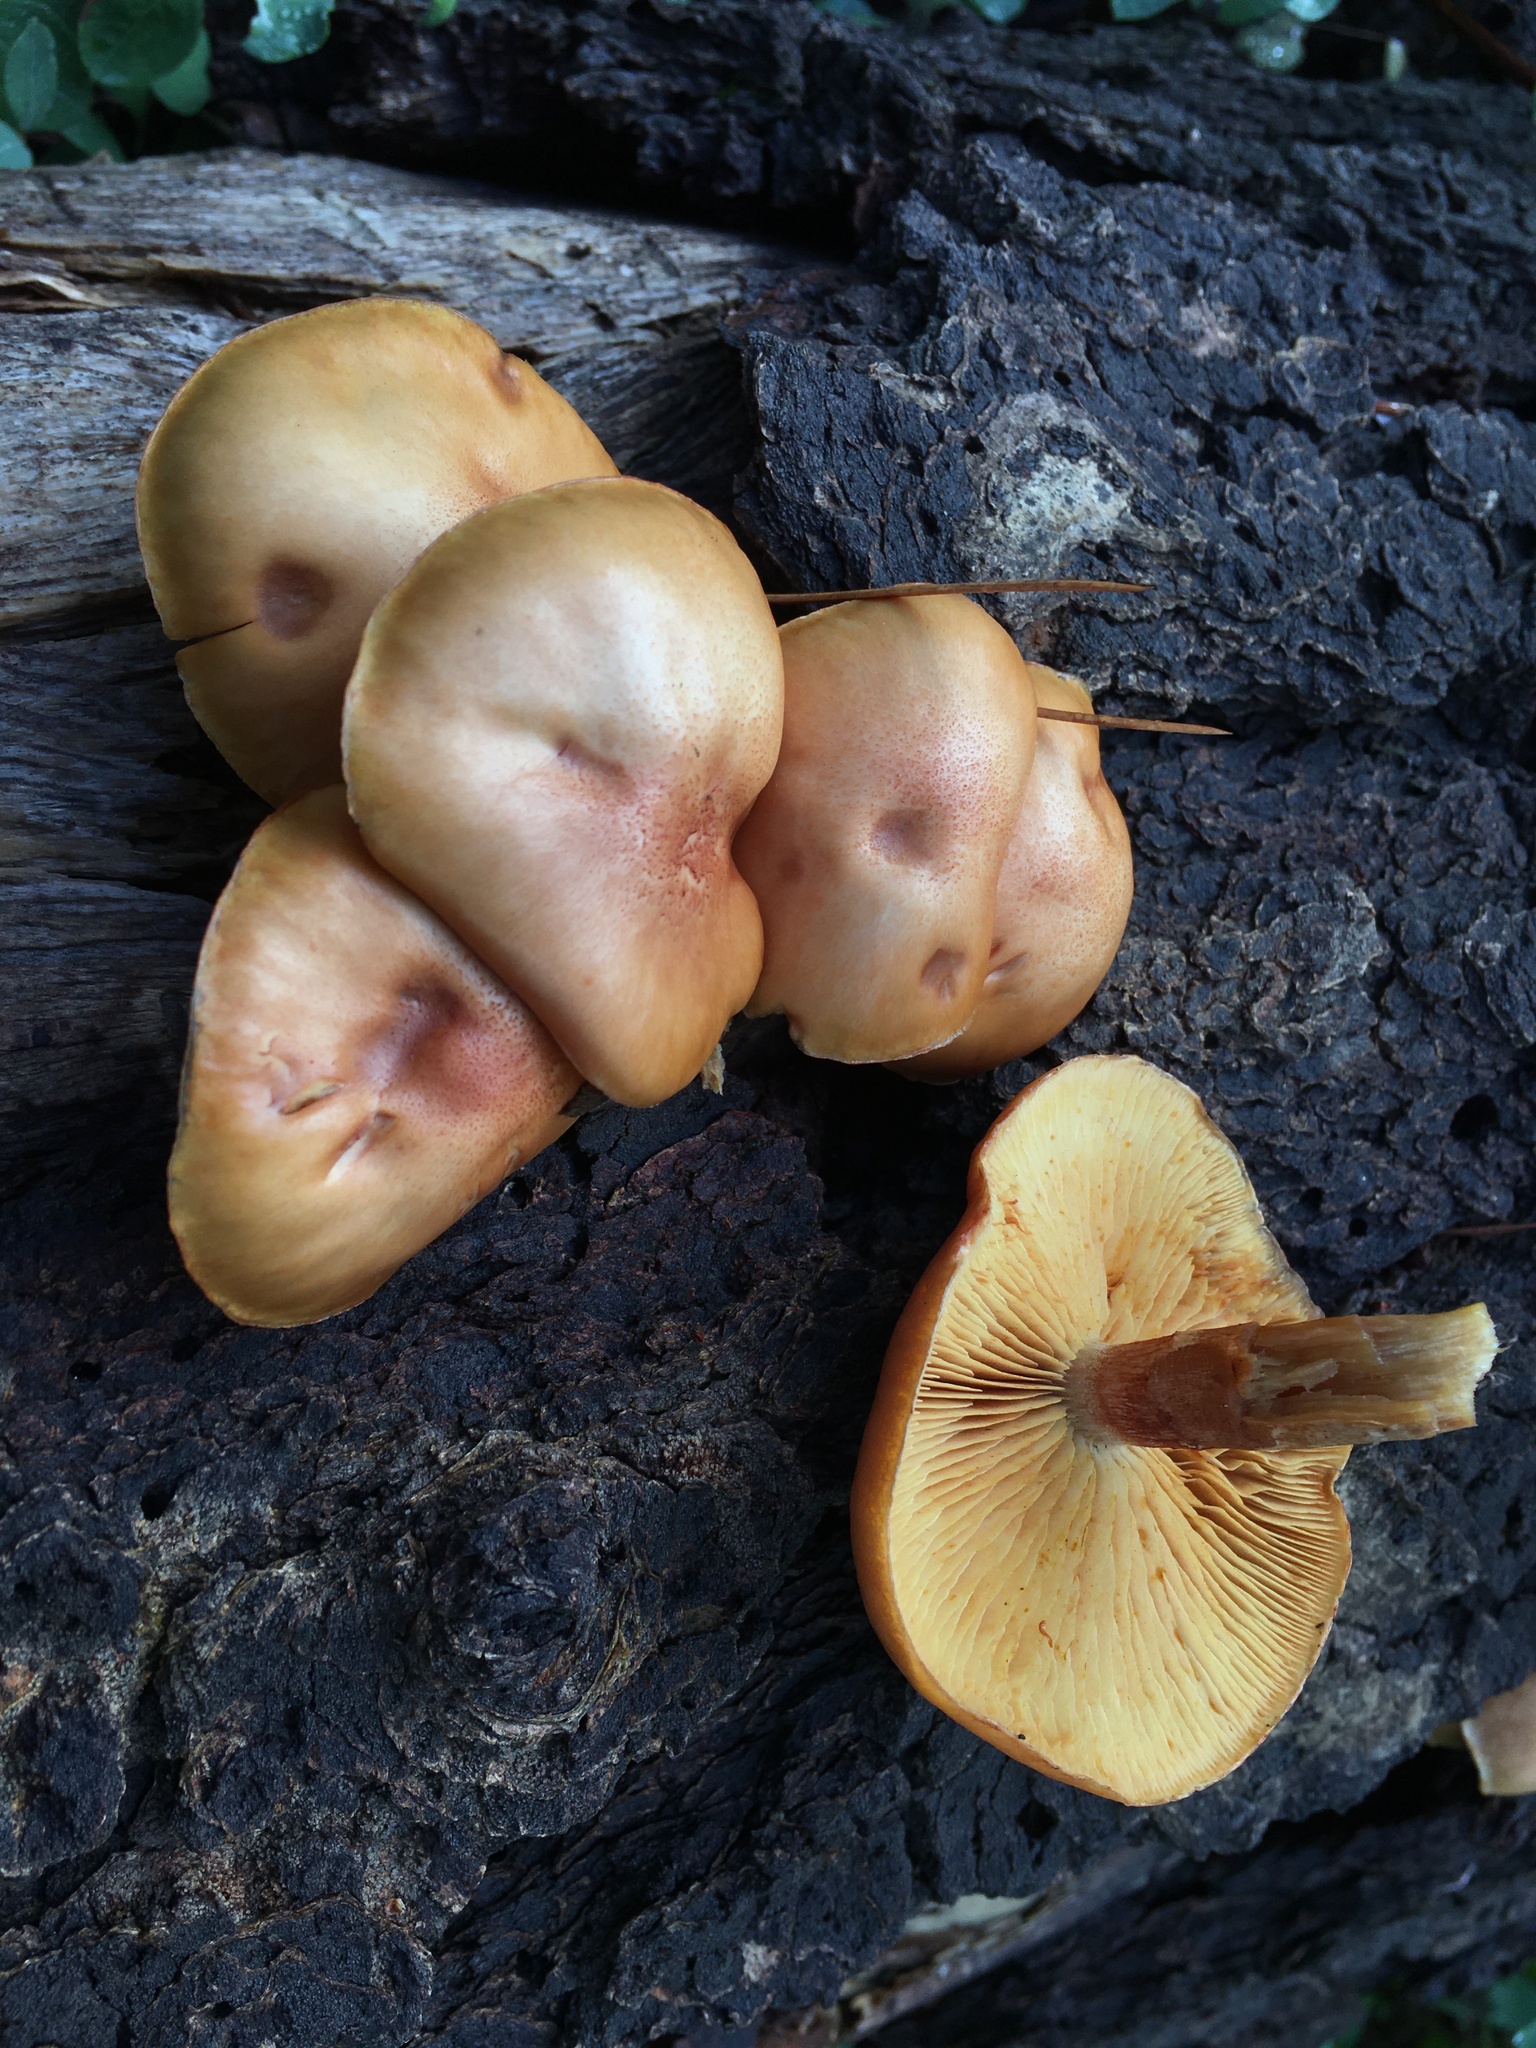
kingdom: Fungi
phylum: Basidiomycota
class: Agaricomycetes
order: Agaricales
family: Tricholomataceae
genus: Tricholomopsis
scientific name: Tricholomopsis rutilans
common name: Plums and custard
